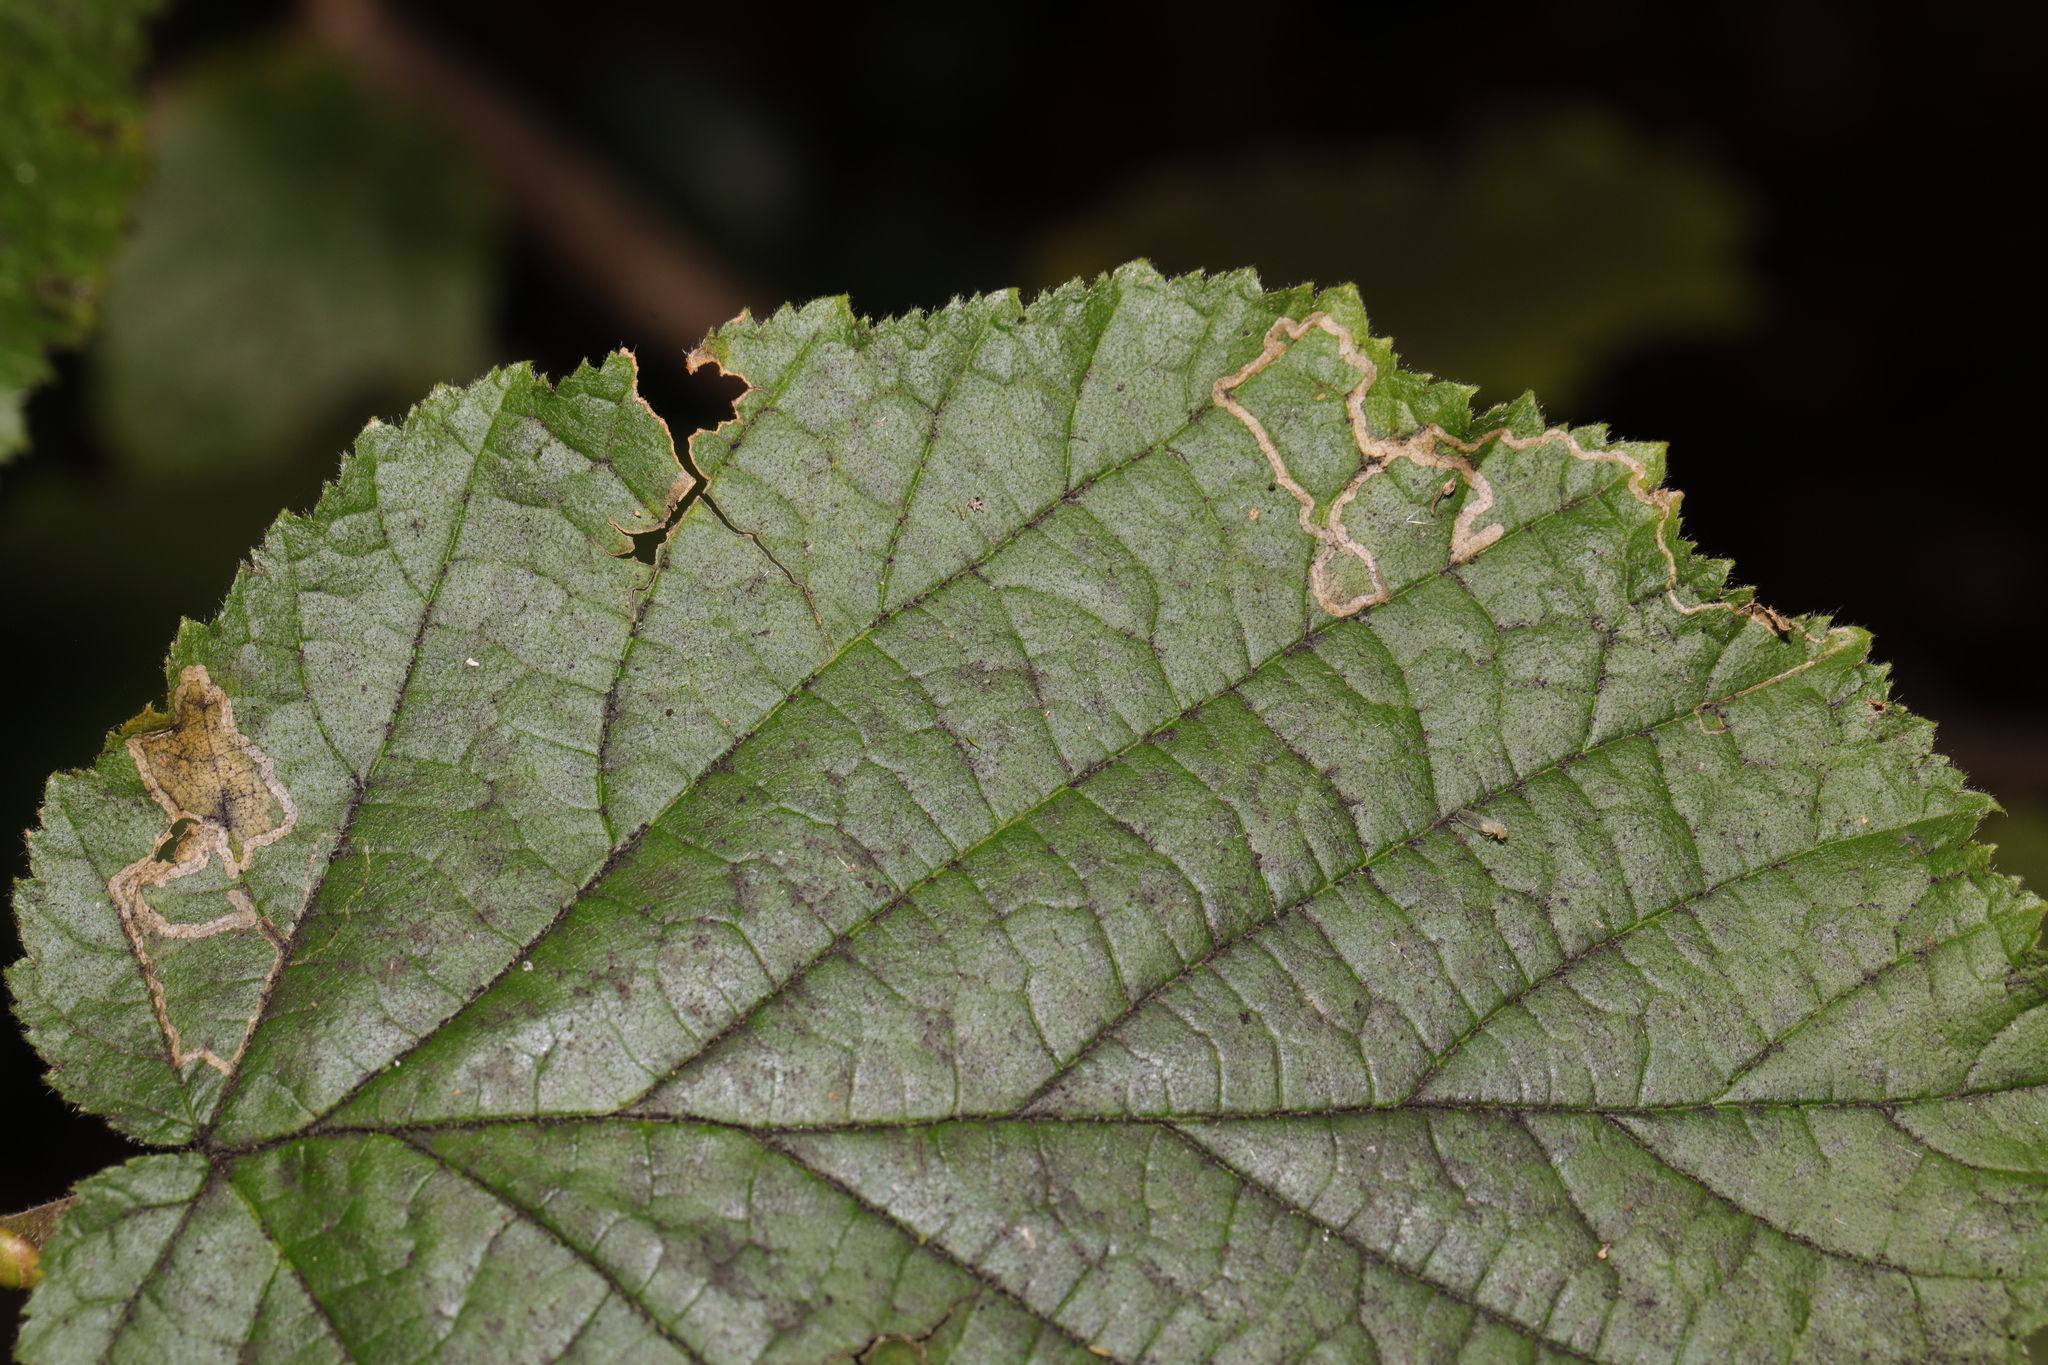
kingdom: Animalia
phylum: Arthropoda
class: Insecta
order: Lepidoptera
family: Nepticulidae
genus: Stigmella
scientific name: Stigmella microtheriella
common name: Nut-tree pigmy
